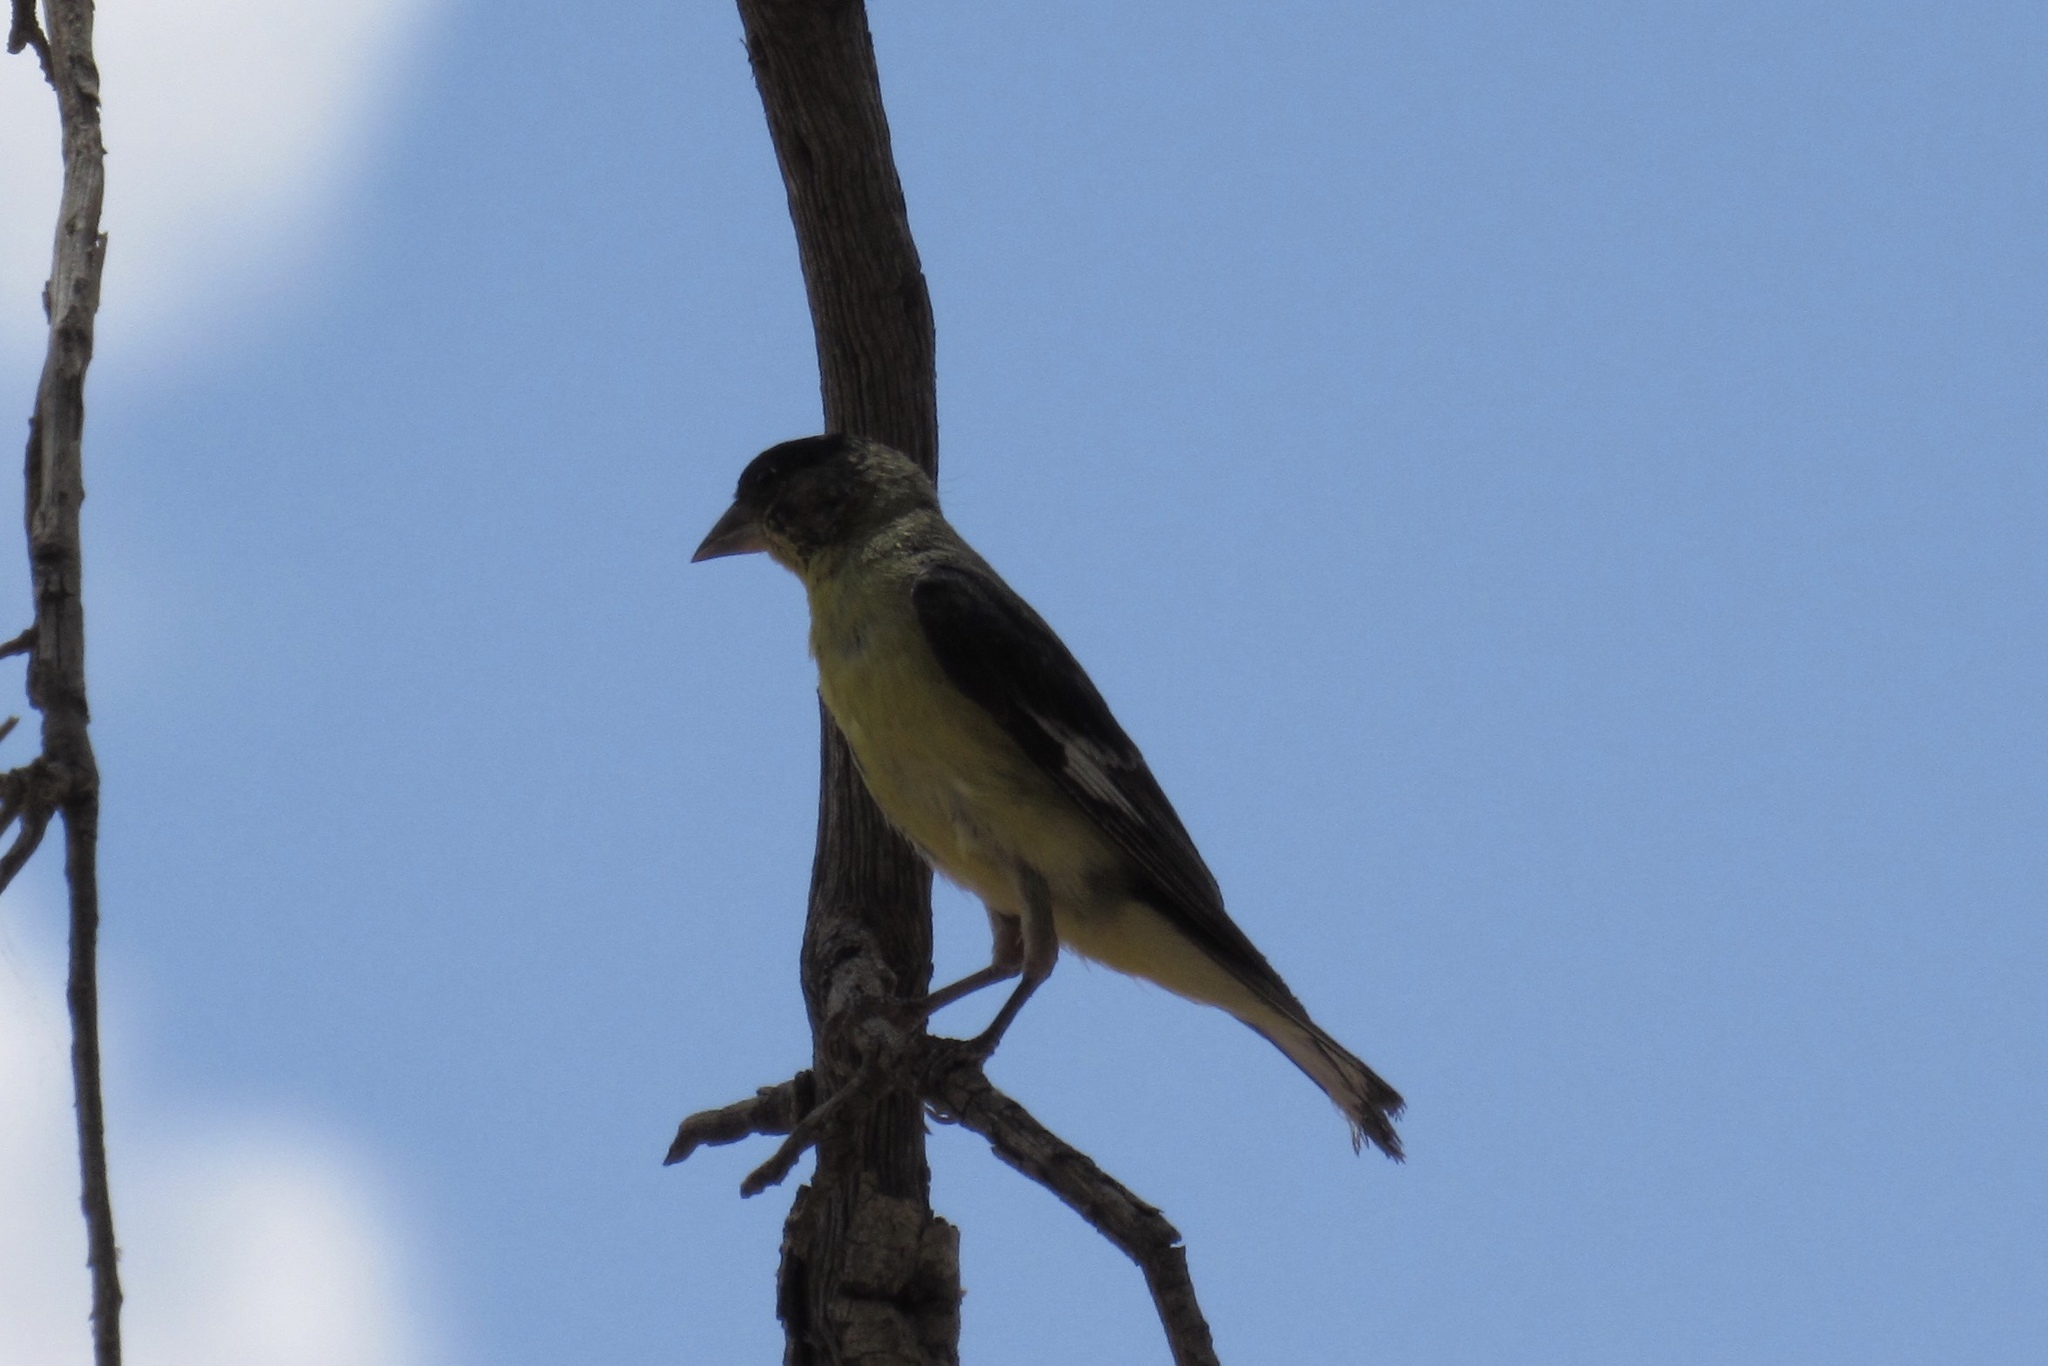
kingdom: Animalia
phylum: Chordata
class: Aves
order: Passeriformes
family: Fringillidae
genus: Spinus
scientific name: Spinus psaltria
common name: Lesser goldfinch
